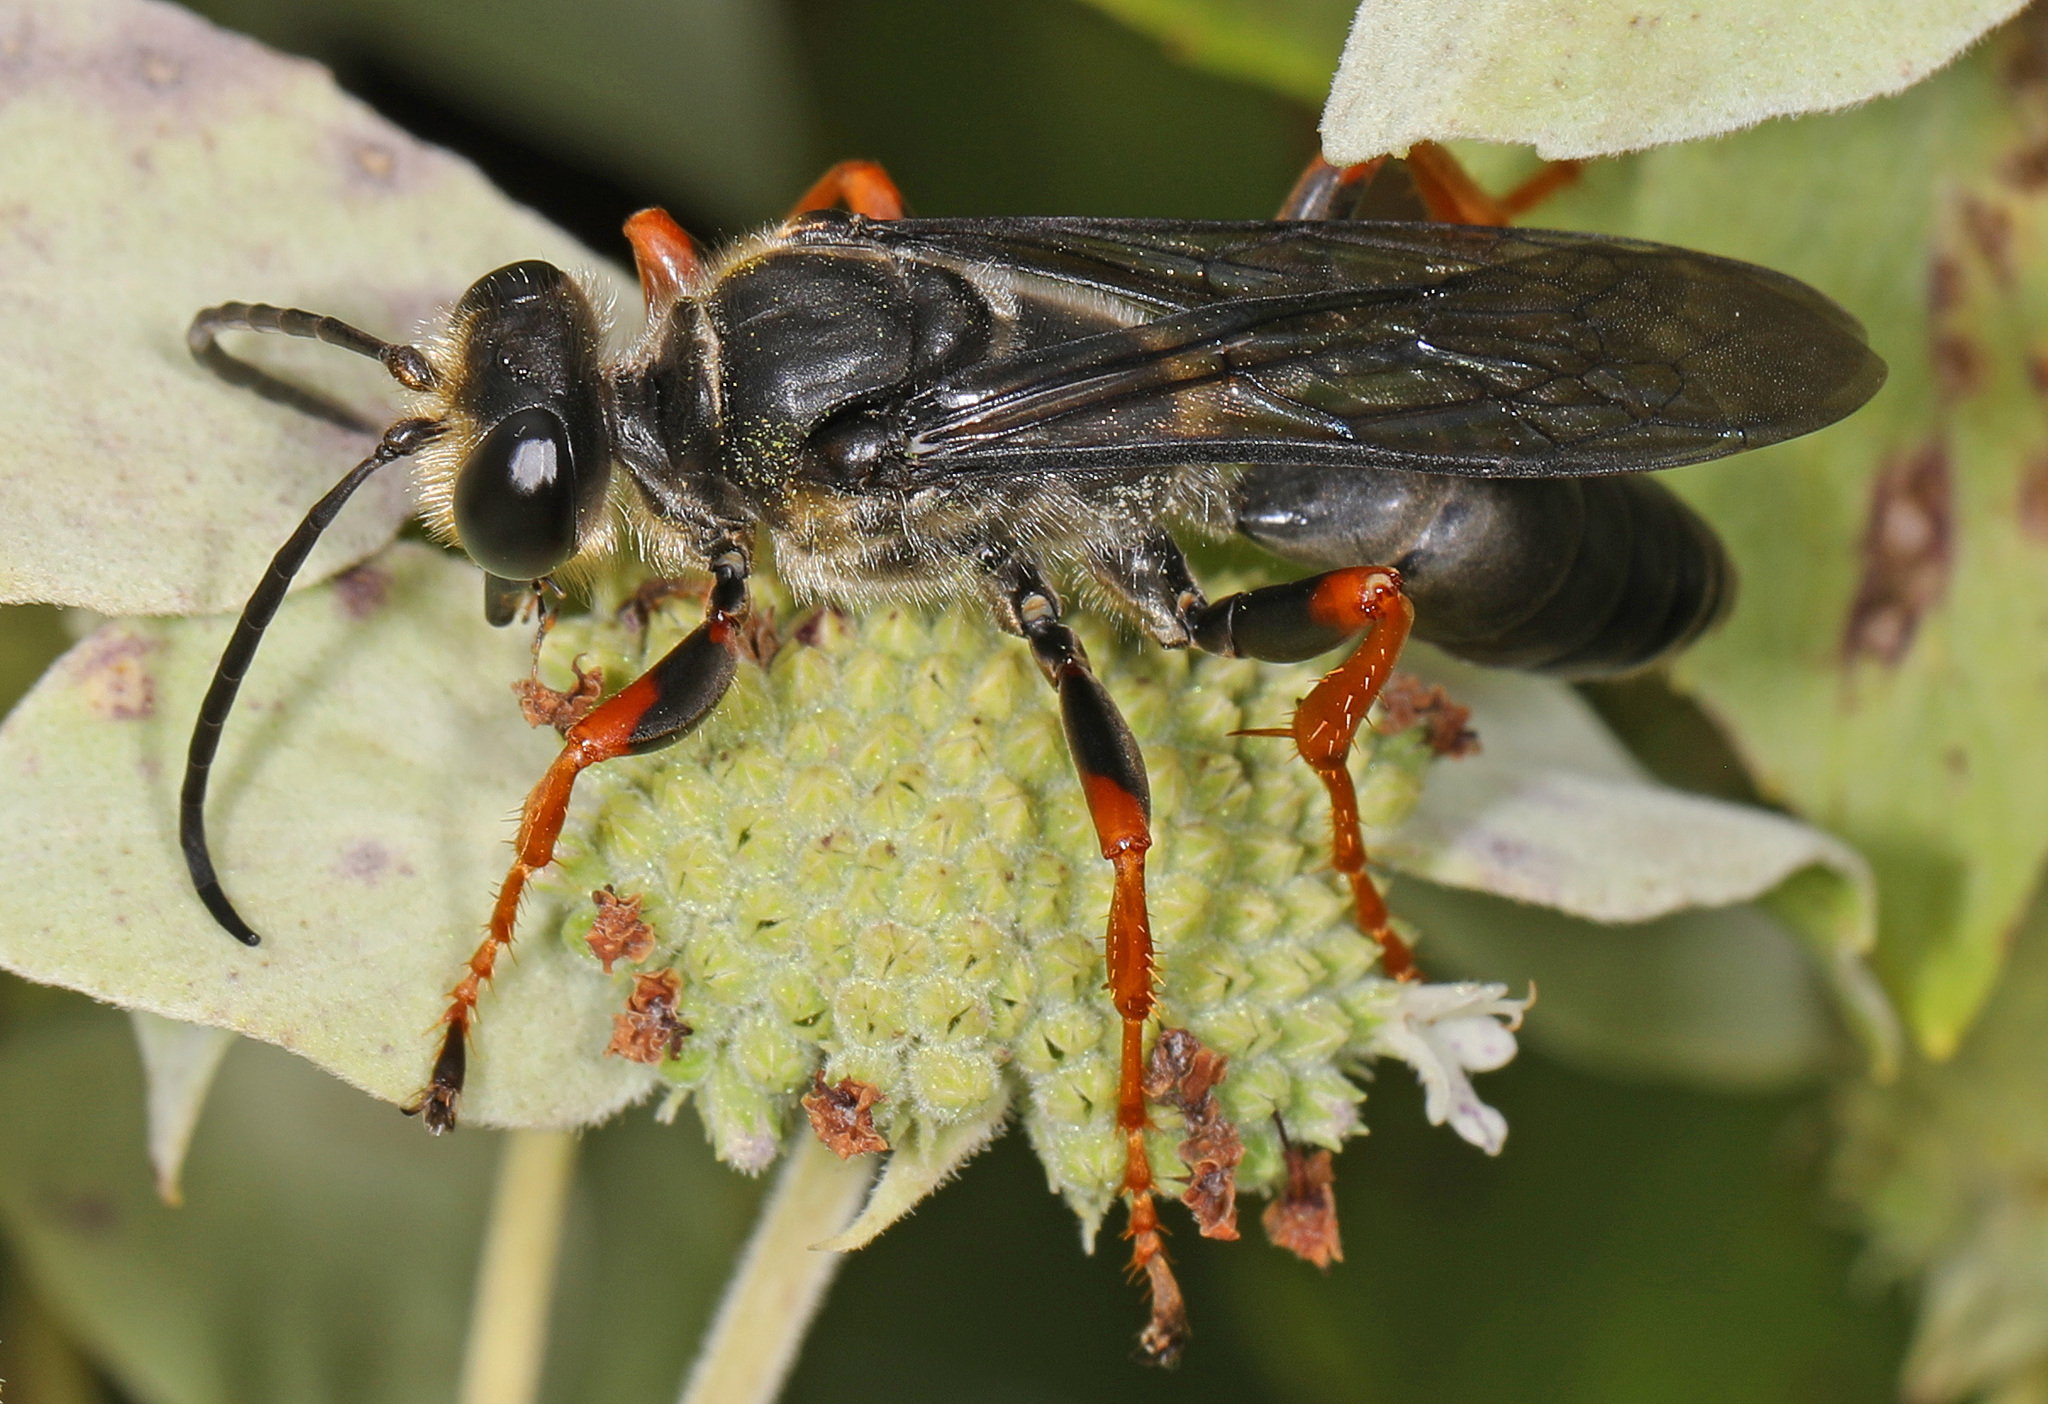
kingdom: Animalia
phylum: Arthropoda
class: Insecta
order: Hymenoptera
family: Sphecidae
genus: Sphex
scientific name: Sphex nudus
